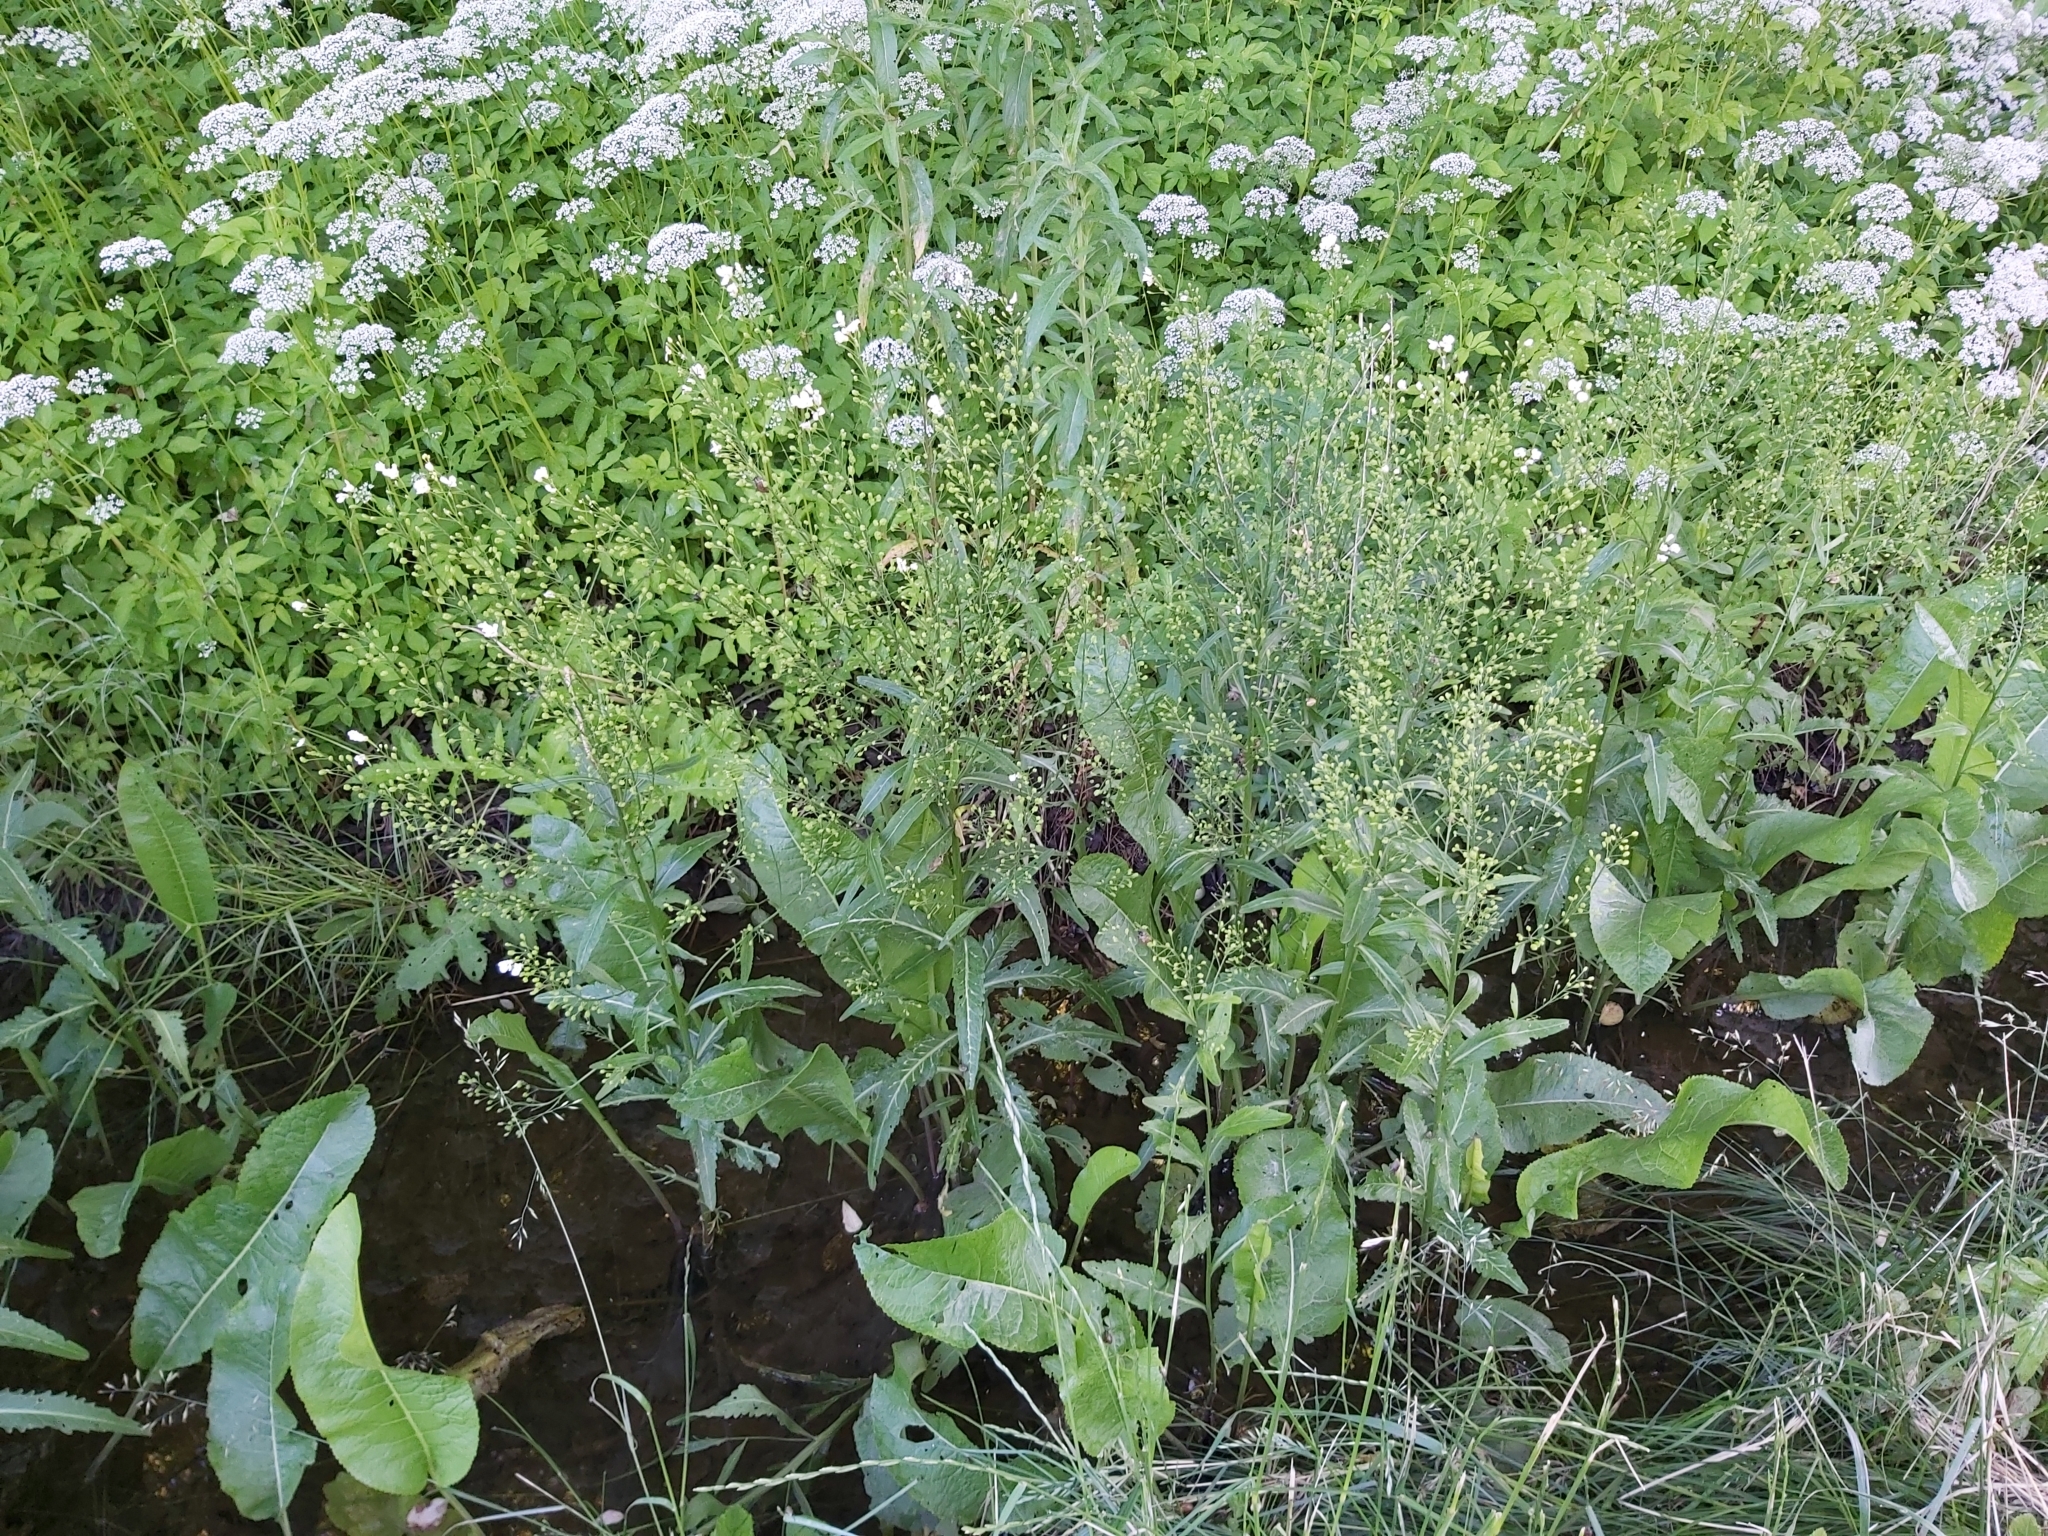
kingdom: Plantae
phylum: Tracheophyta
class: Magnoliopsida
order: Brassicales
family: Brassicaceae
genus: Armoracia
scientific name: Armoracia rusticana
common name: Horseradish
